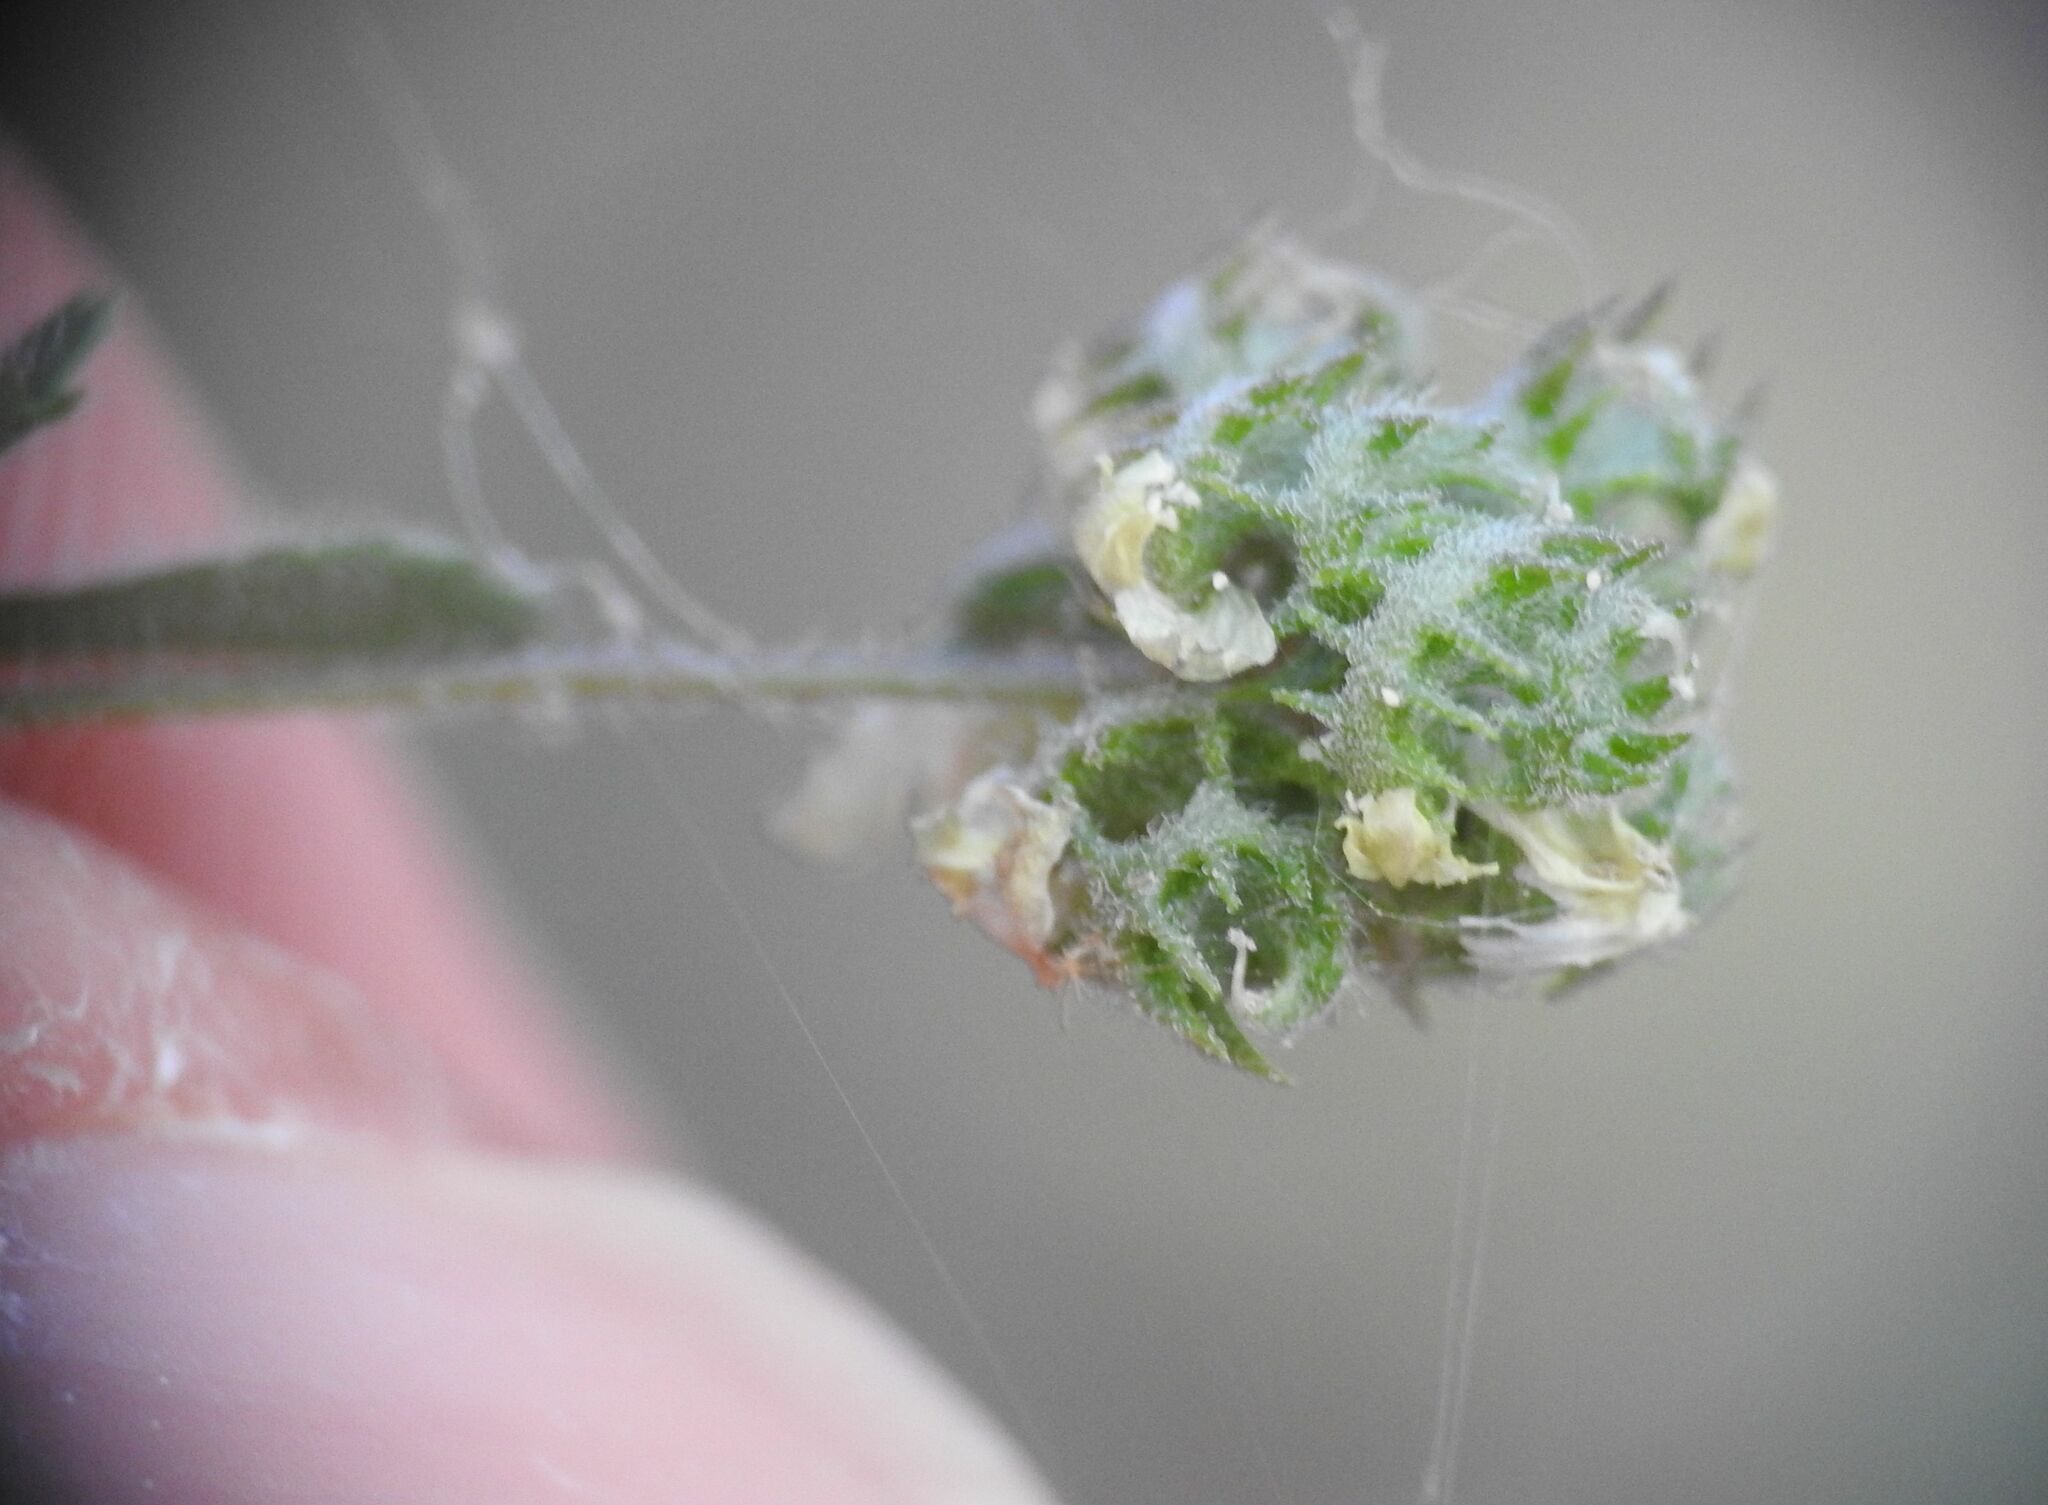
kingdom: Plantae
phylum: Tracheophyta
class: Magnoliopsida
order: Fabales
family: Fabaceae
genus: Medicago
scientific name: Medicago coronata
